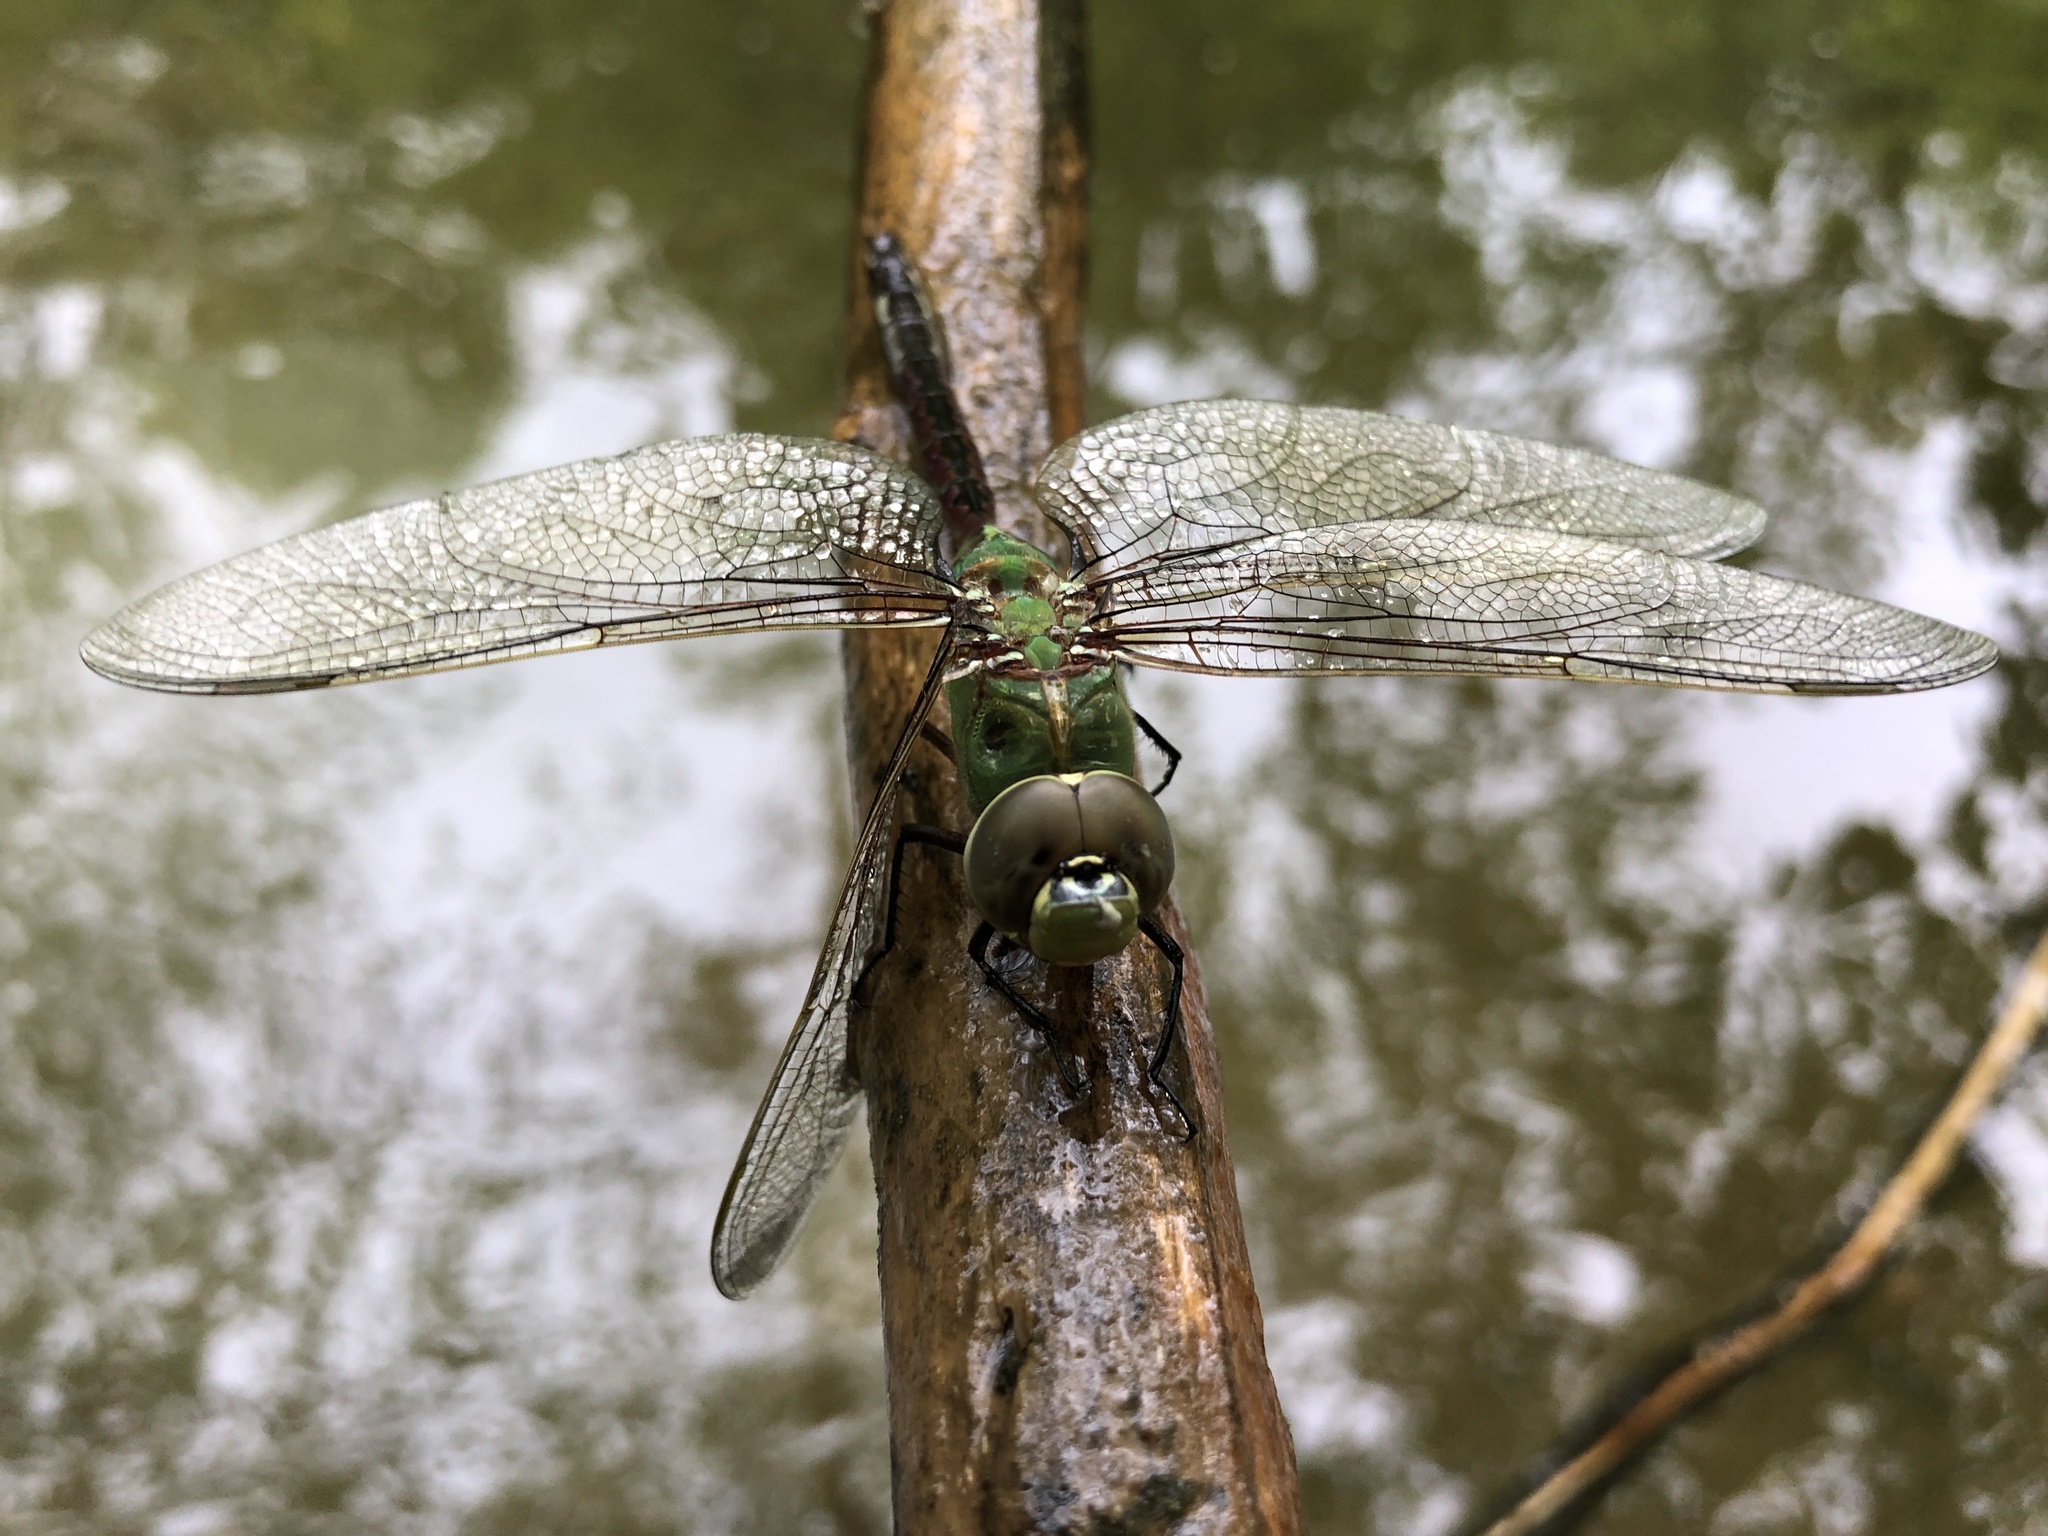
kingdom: Animalia
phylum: Arthropoda
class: Insecta
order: Odonata
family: Aeshnidae
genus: Anax
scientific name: Anax junius
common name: Common green darner
